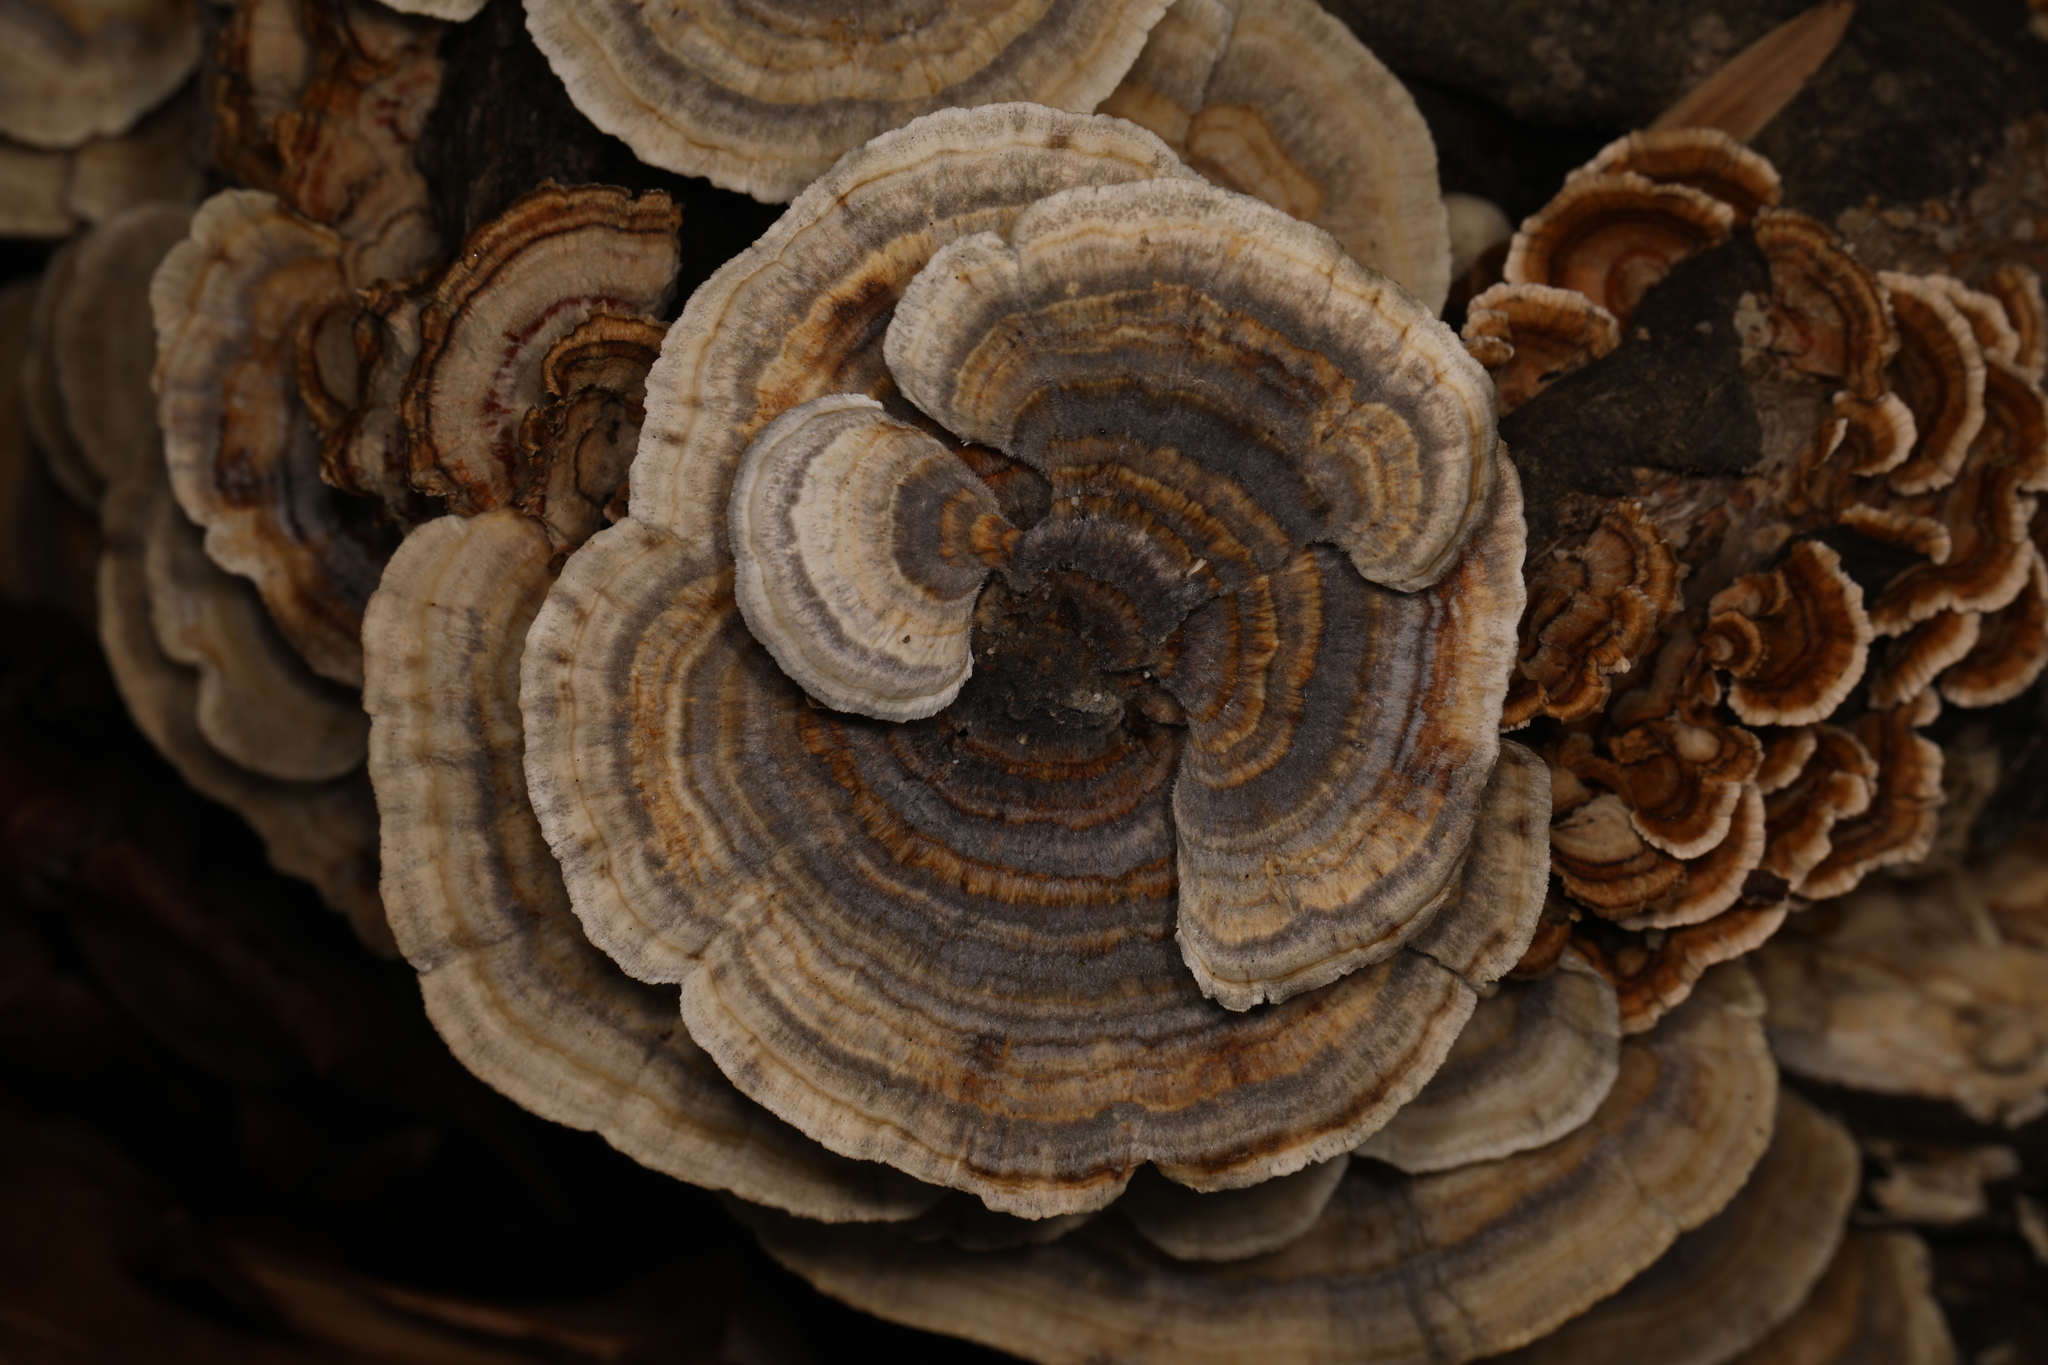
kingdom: Fungi
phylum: Basidiomycota
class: Agaricomycetes
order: Polyporales
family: Polyporaceae
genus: Trametes
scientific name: Trametes versicolor
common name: Turkeytail
